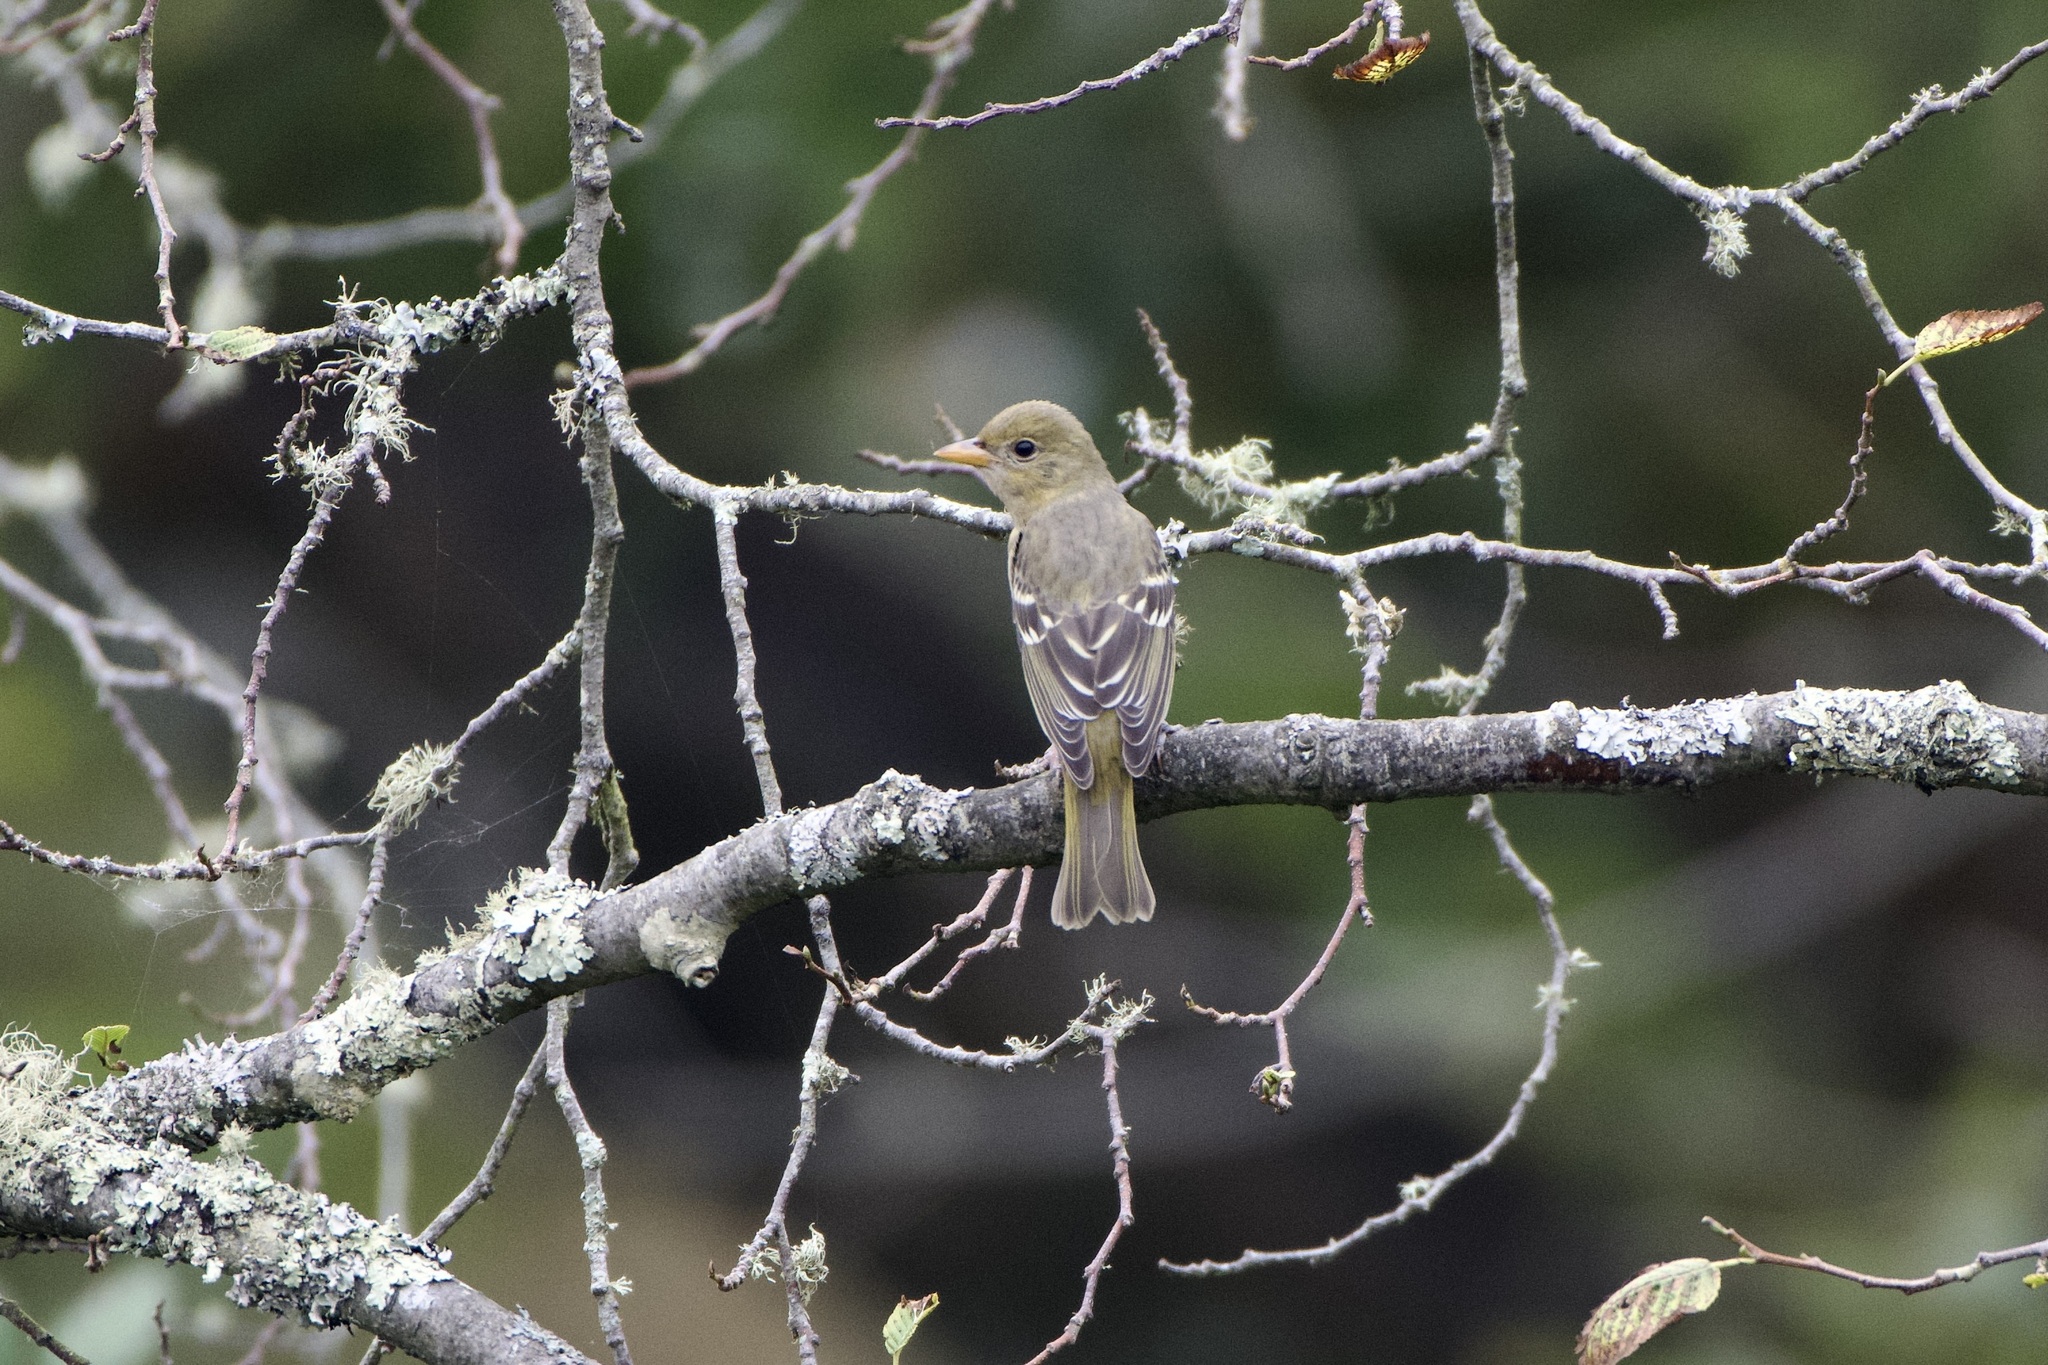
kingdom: Animalia
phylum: Chordata
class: Aves
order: Passeriformes
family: Cardinalidae
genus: Piranga
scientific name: Piranga ludoviciana
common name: Western tanager
